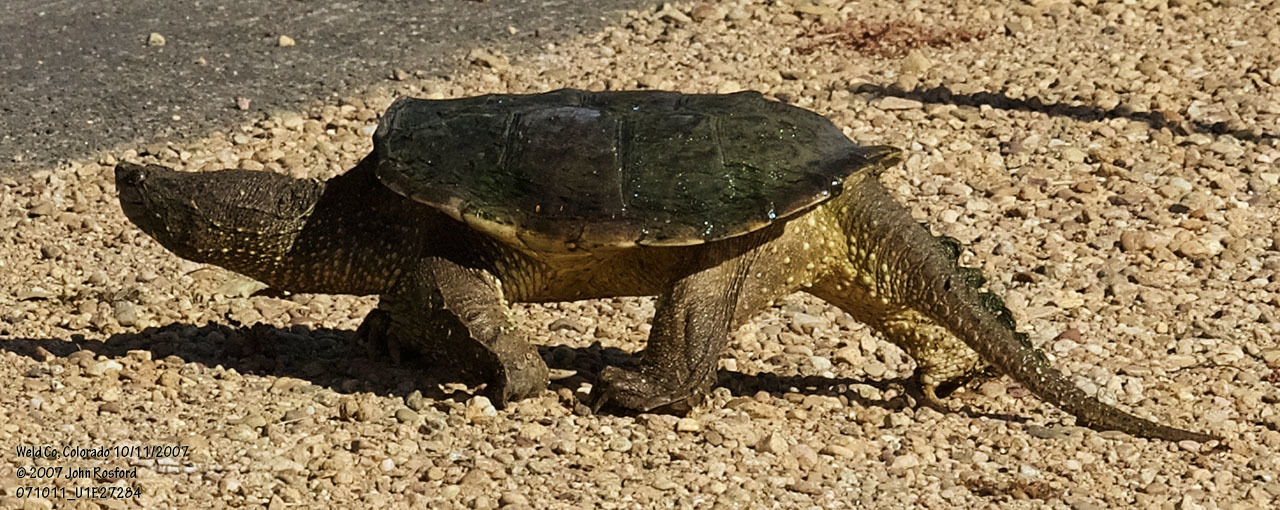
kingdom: Animalia
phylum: Chordata
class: Testudines
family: Chelydridae
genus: Chelydra
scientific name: Chelydra serpentina
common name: Common snapping turtle
